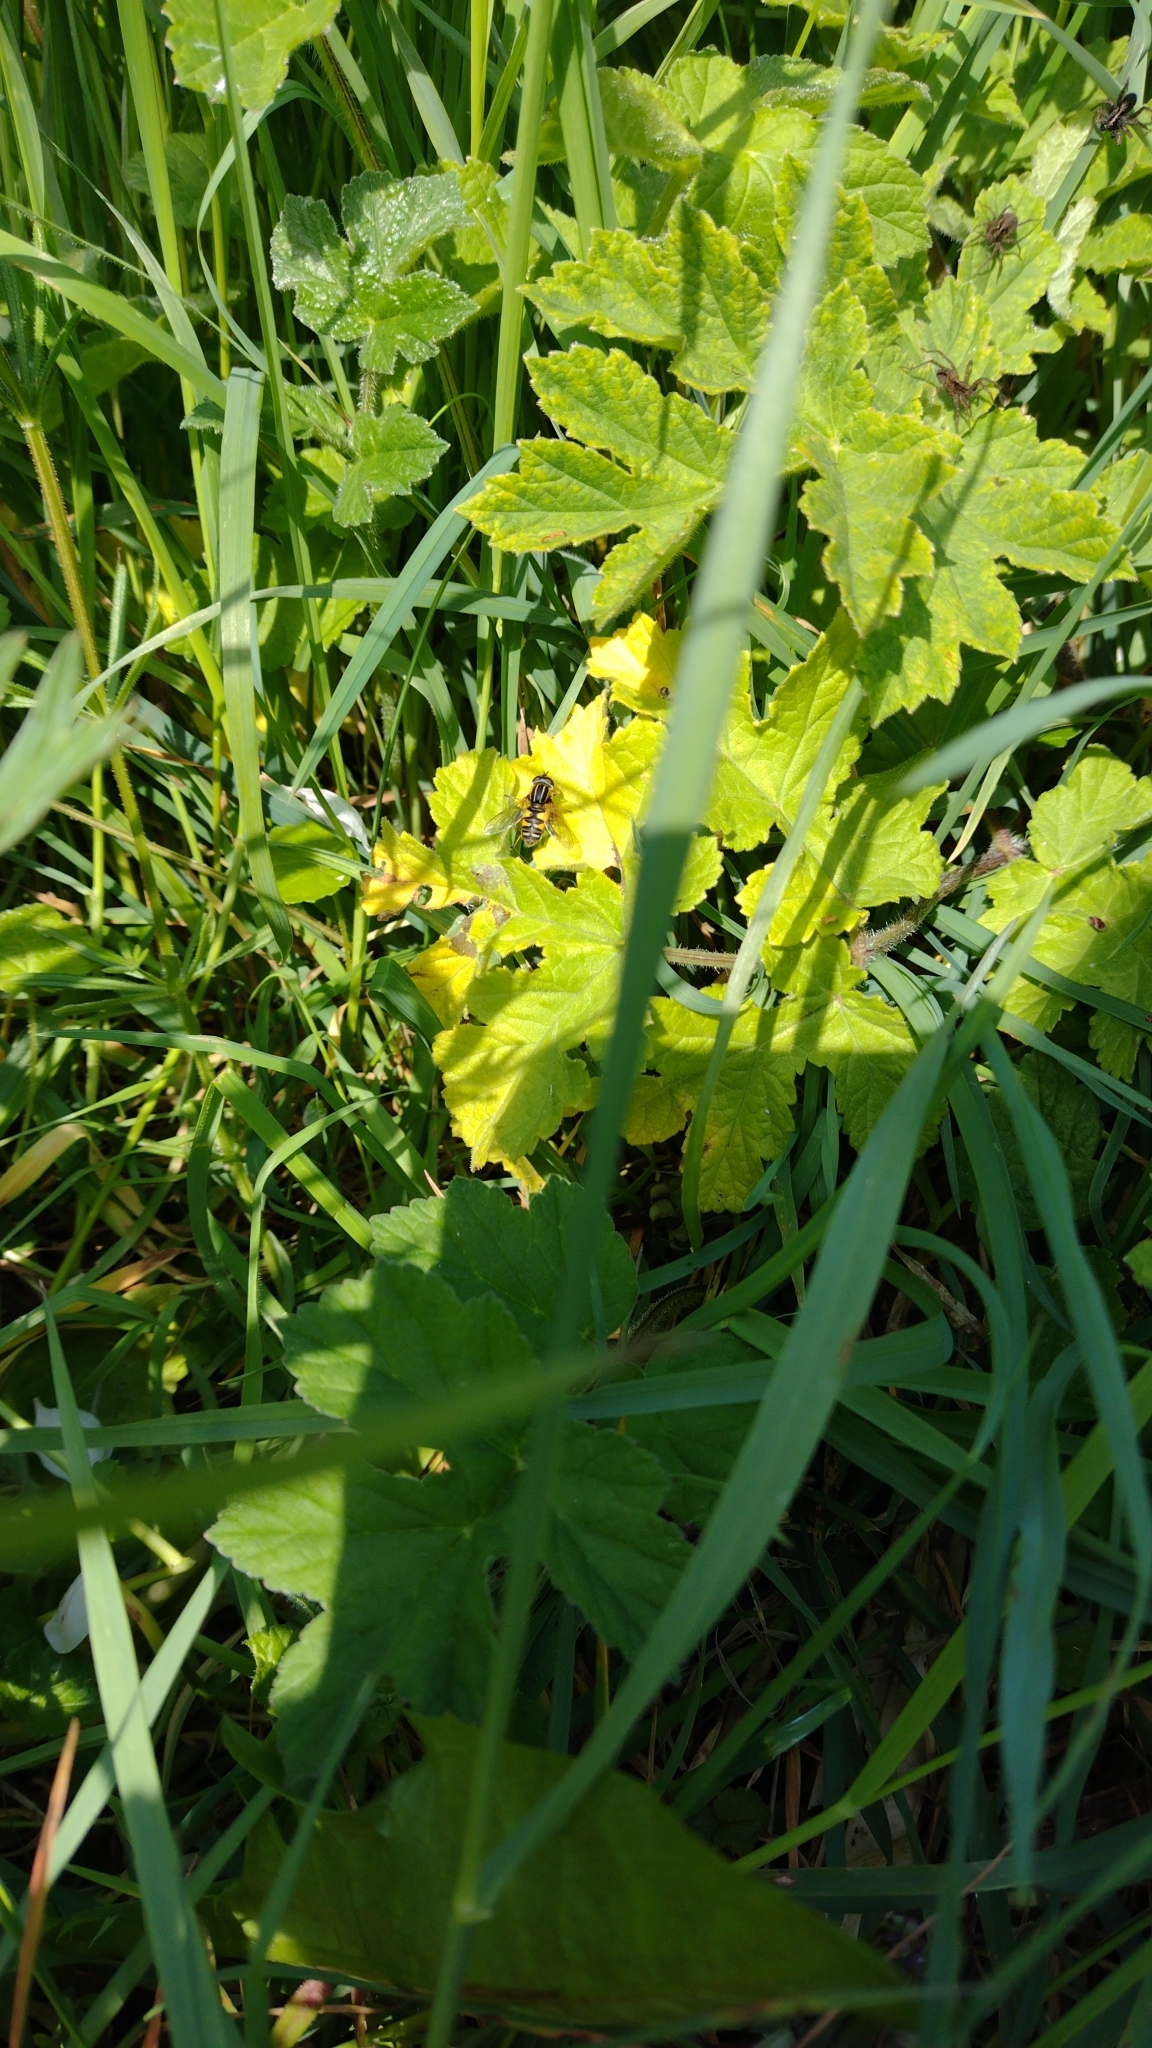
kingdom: Animalia
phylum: Arthropoda
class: Insecta
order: Diptera
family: Syrphidae
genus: Helophilus
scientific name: Helophilus pendulus
